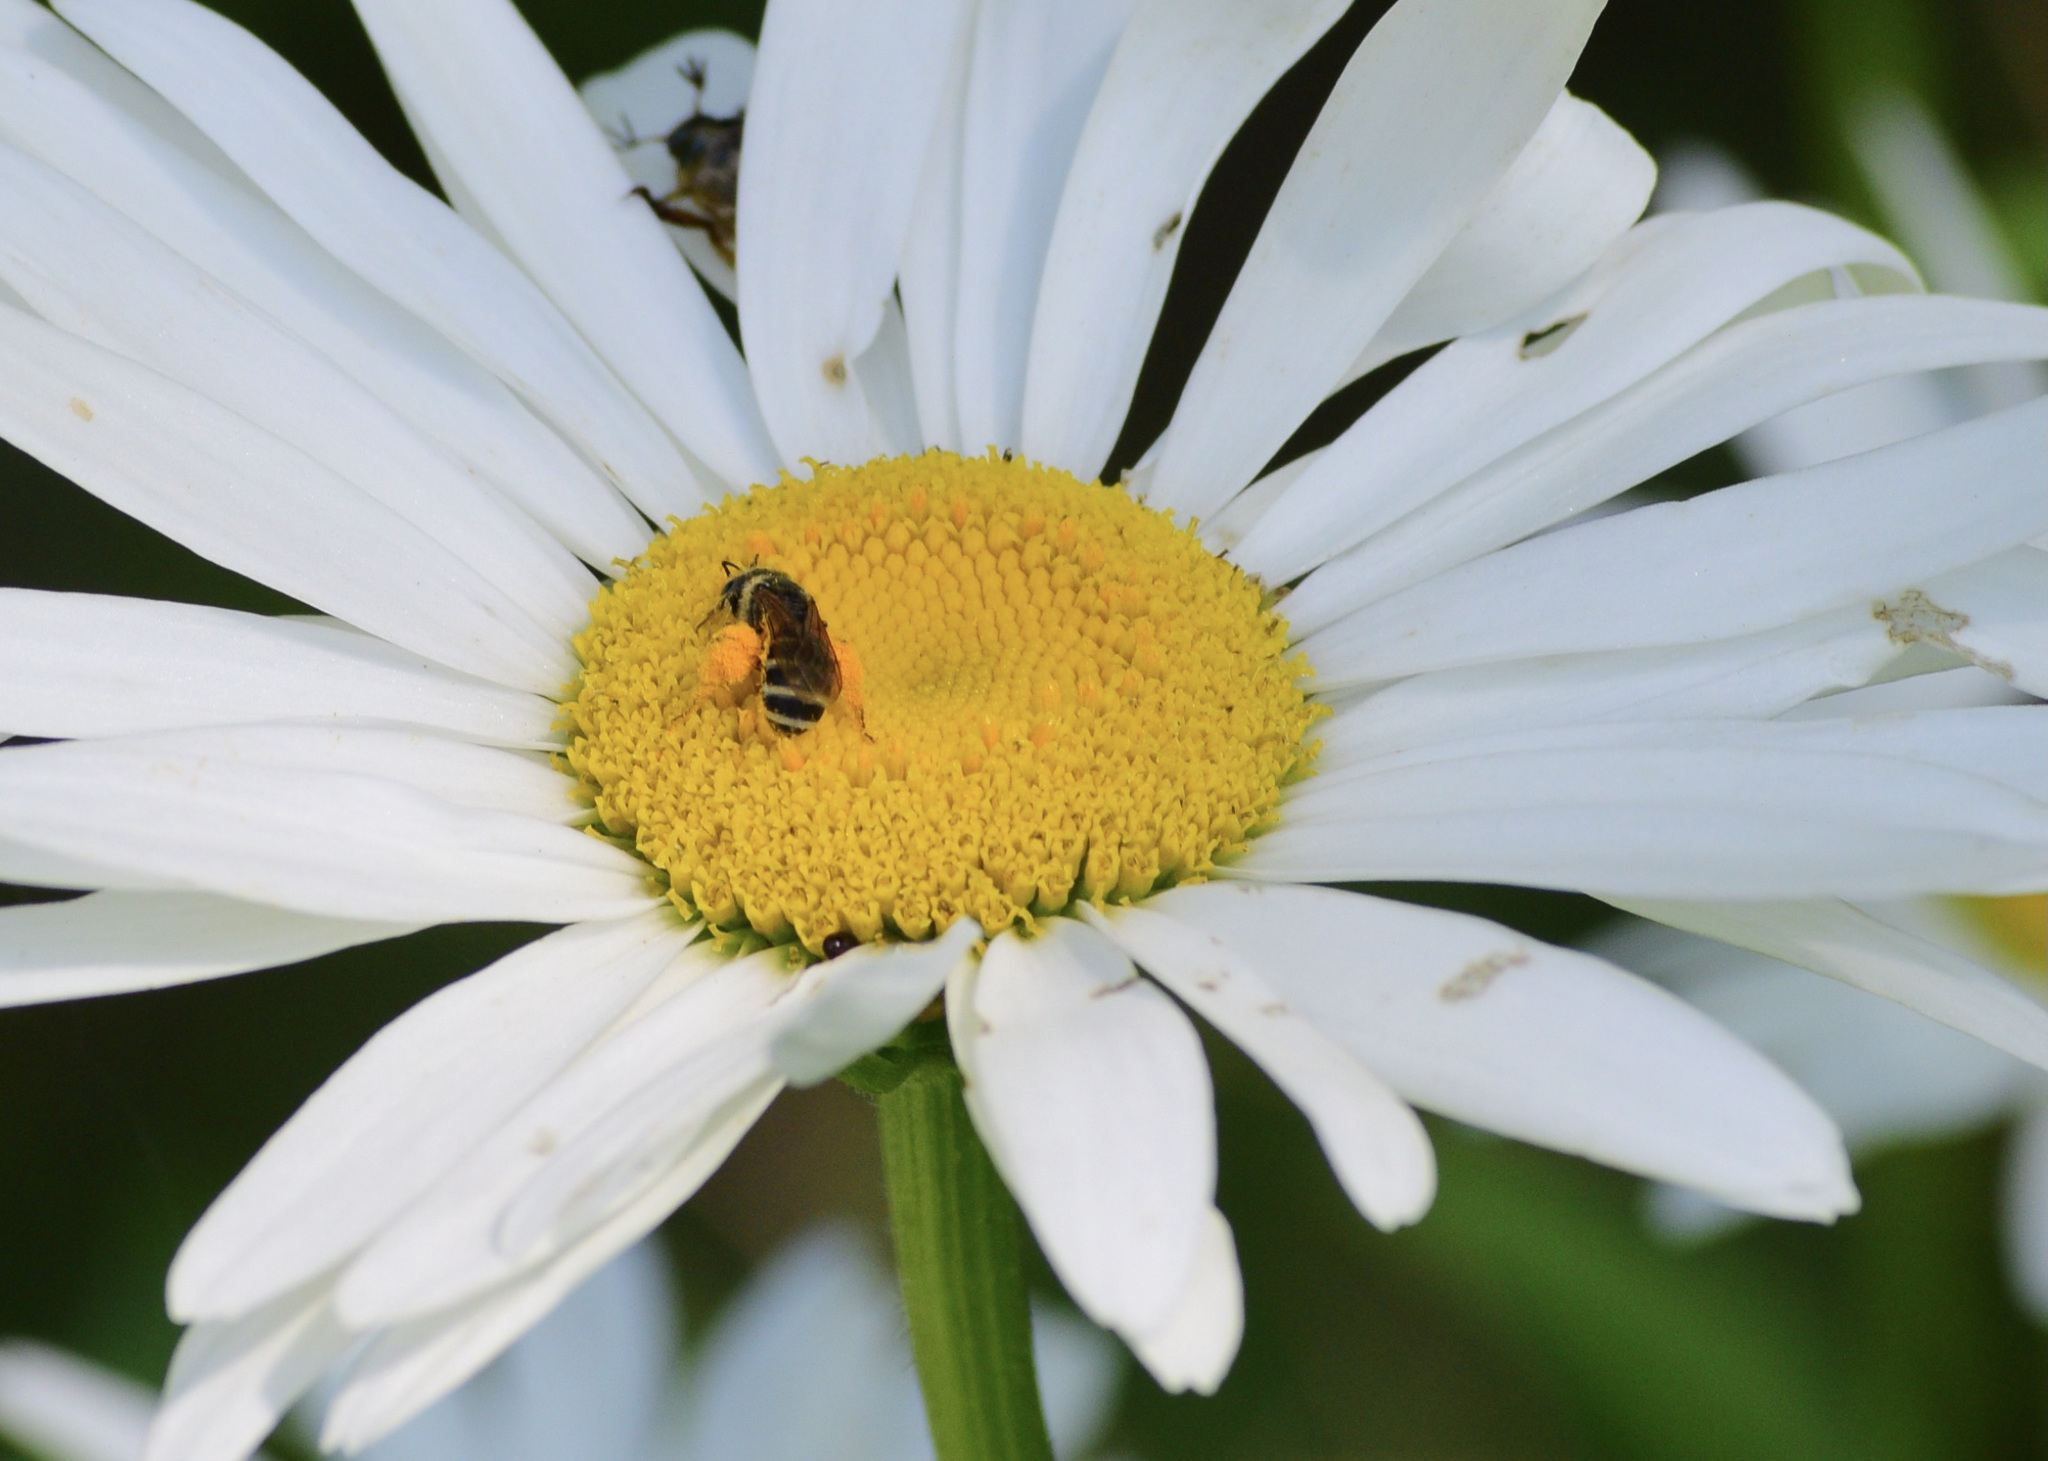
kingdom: Animalia
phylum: Arthropoda
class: Insecta
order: Hymenoptera
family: Halictidae
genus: Halictus
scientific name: Halictus ligatus
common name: Ligated furrow bee
